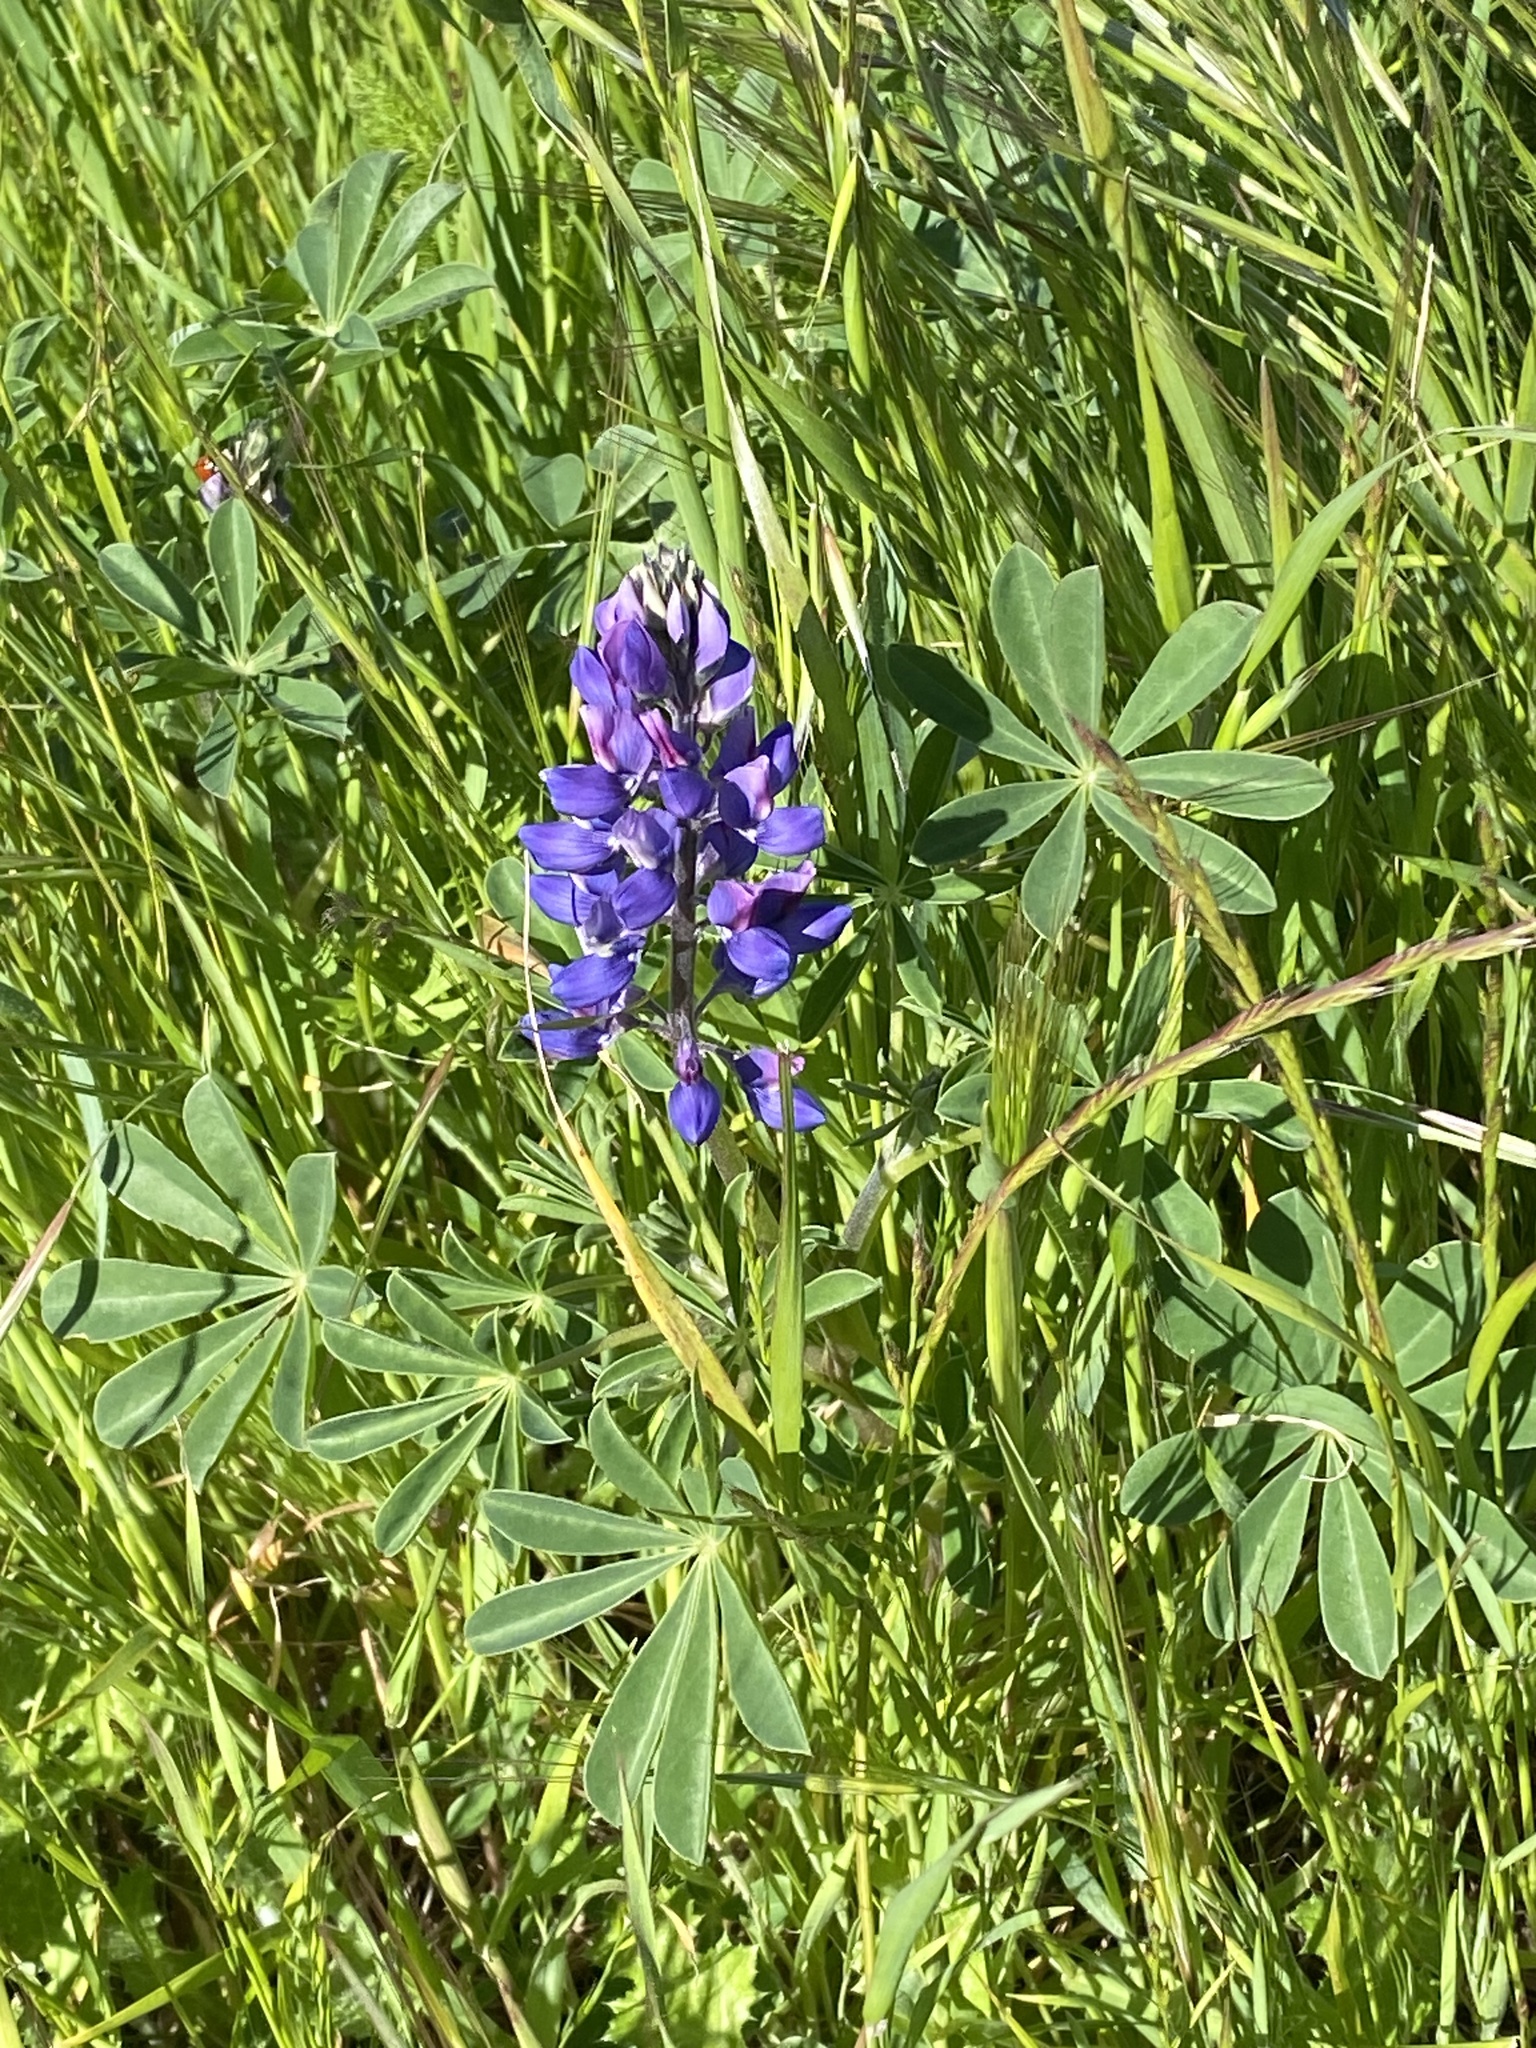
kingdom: Plantae
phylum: Tracheophyta
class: Magnoliopsida
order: Fabales
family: Fabaceae
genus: Lupinus
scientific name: Lupinus succulentus
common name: Arroyo lupine
